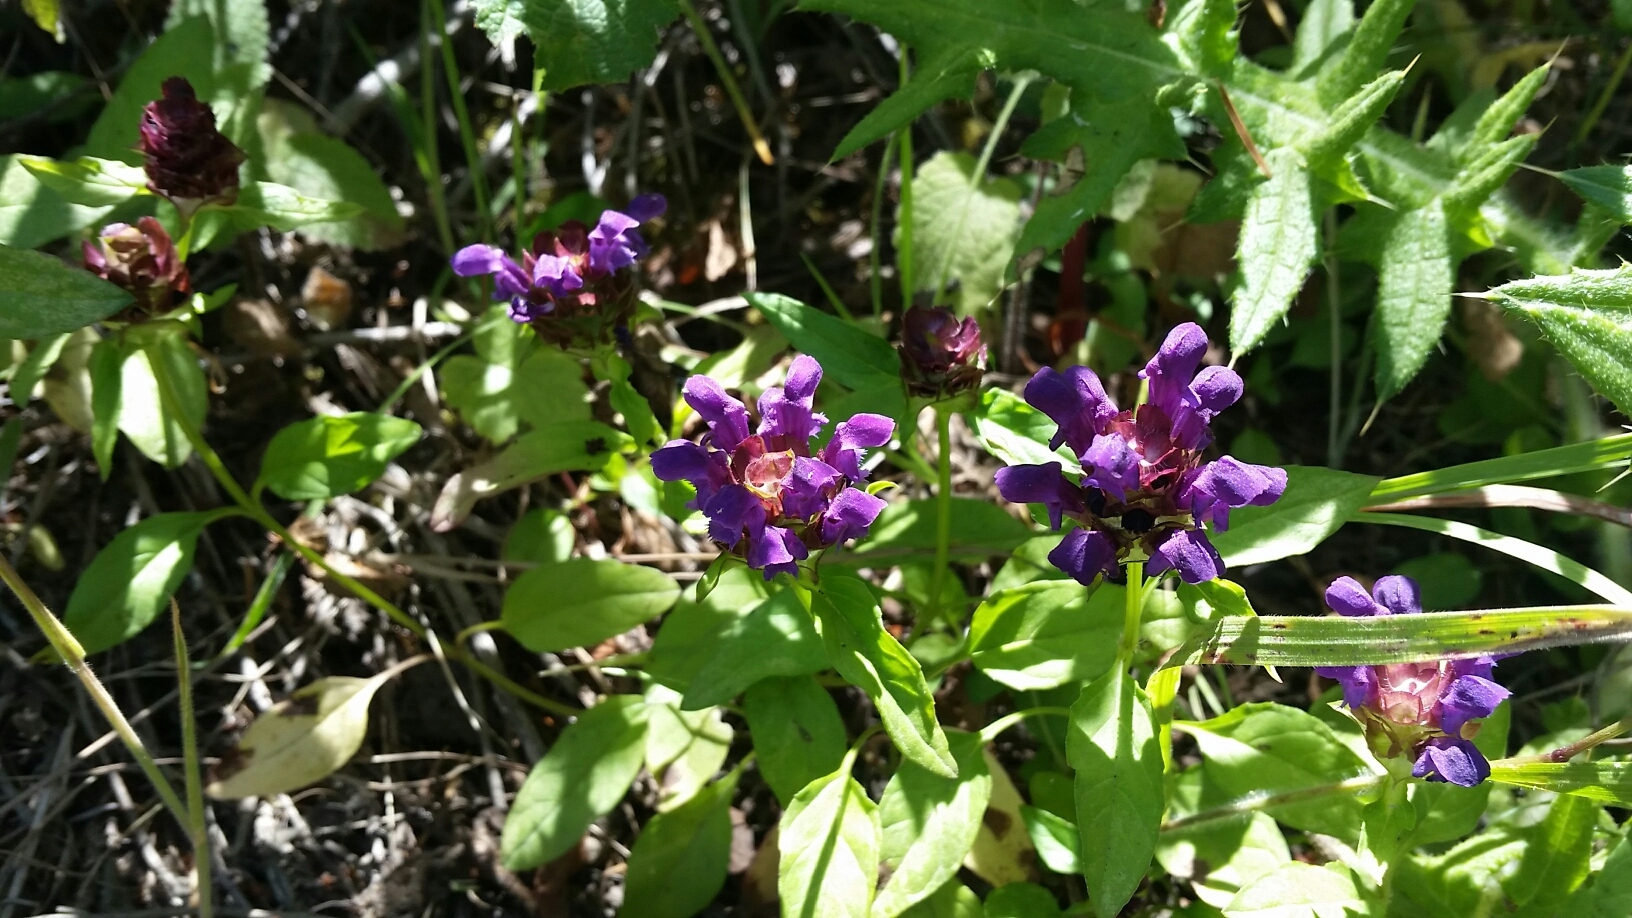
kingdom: Plantae
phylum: Tracheophyta
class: Magnoliopsida
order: Lamiales
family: Lamiaceae
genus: Prunella
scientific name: Prunella vulgaris
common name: Heal-all
